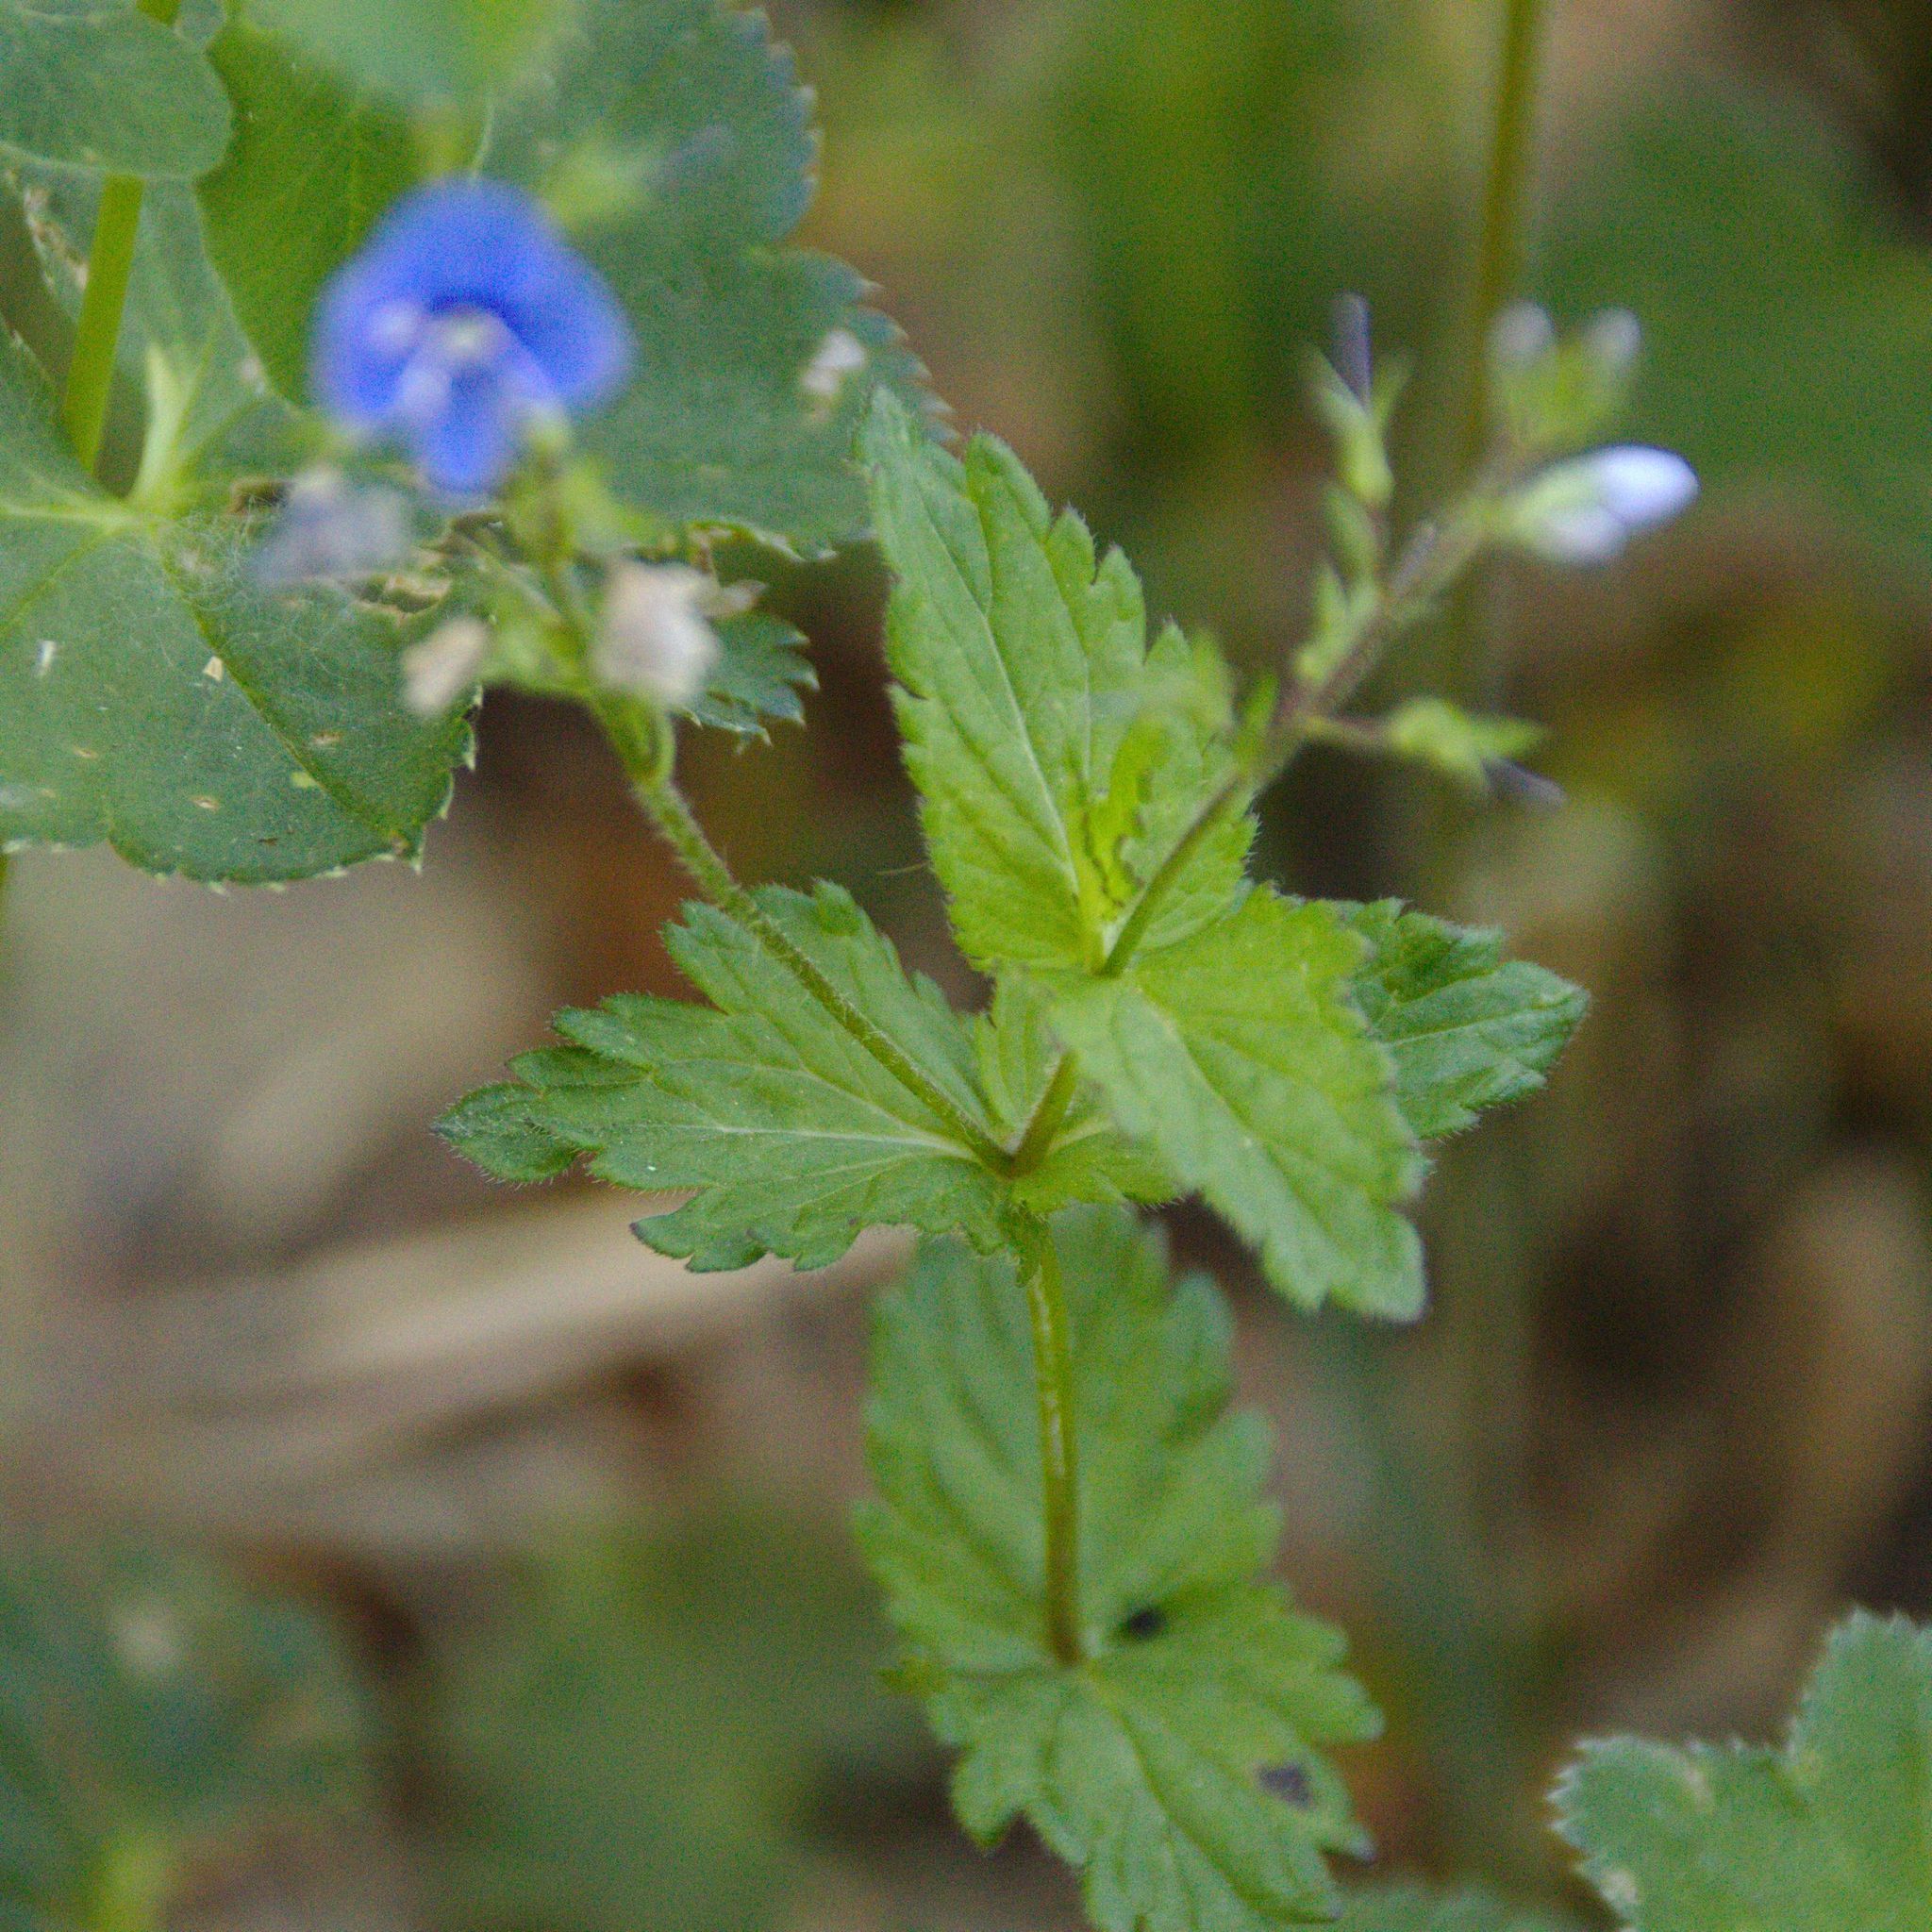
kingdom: Plantae
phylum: Tracheophyta
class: Magnoliopsida
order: Lamiales
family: Plantaginaceae
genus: Veronica
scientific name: Veronica chamaedrys
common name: Germander speedwell
